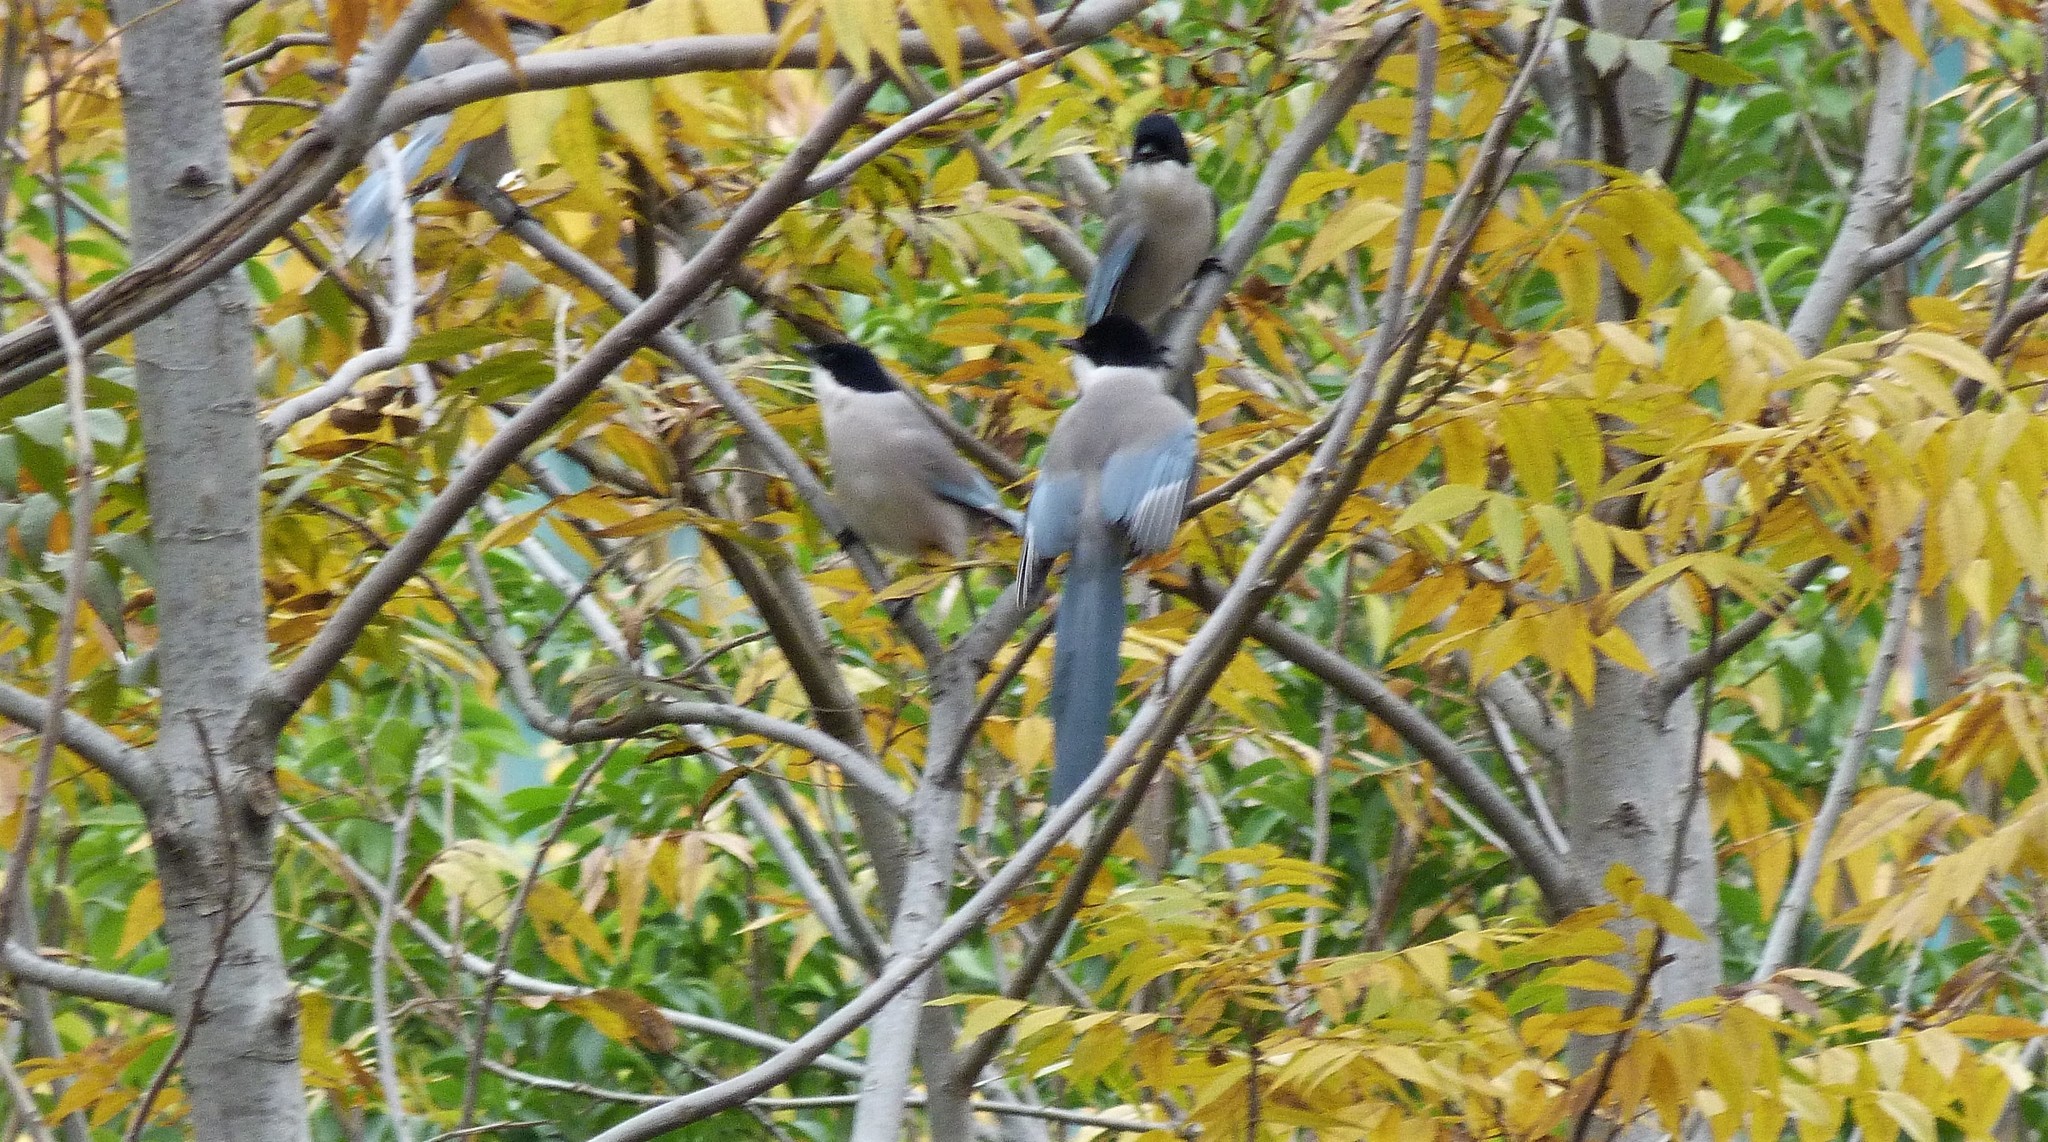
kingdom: Animalia
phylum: Chordata
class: Aves
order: Passeriformes
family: Corvidae
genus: Cyanopica
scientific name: Cyanopica cyanus
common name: Azure-winged magpie
